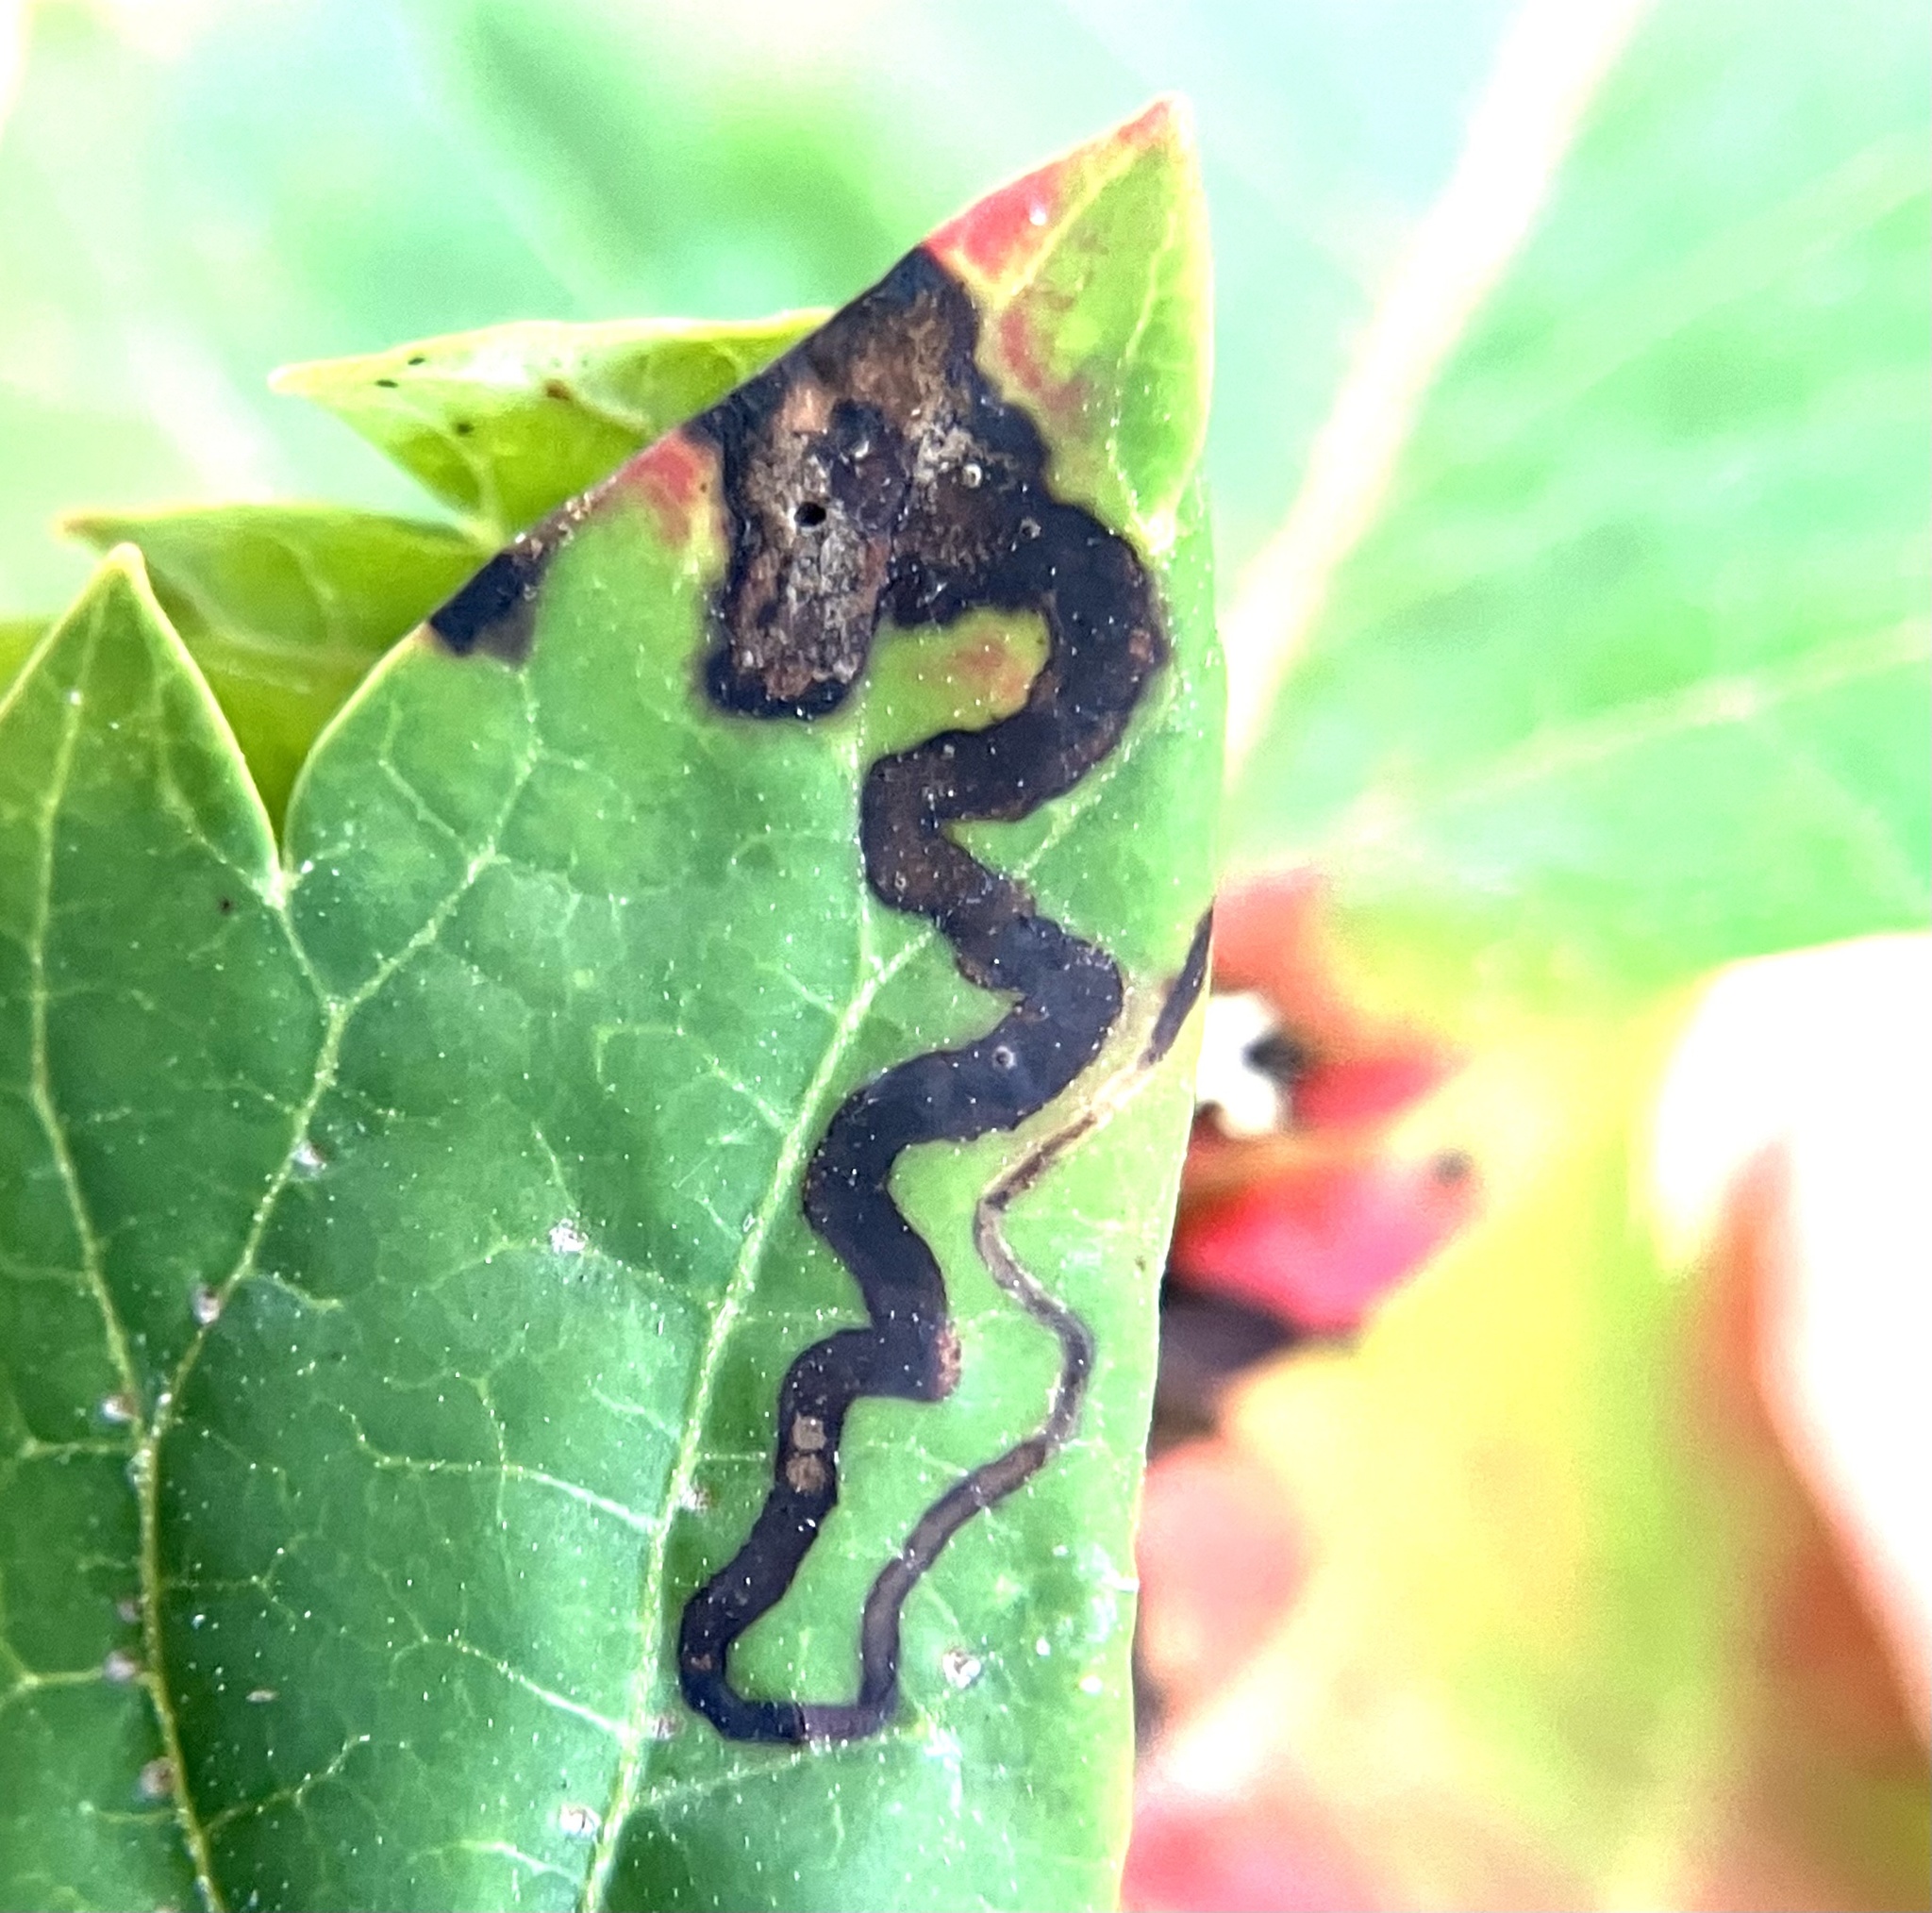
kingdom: Animalia
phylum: Arthropoda
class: Insecta
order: Lepidoptera
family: Nepticulidae
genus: Stigmella
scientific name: Stigmella intermedia
